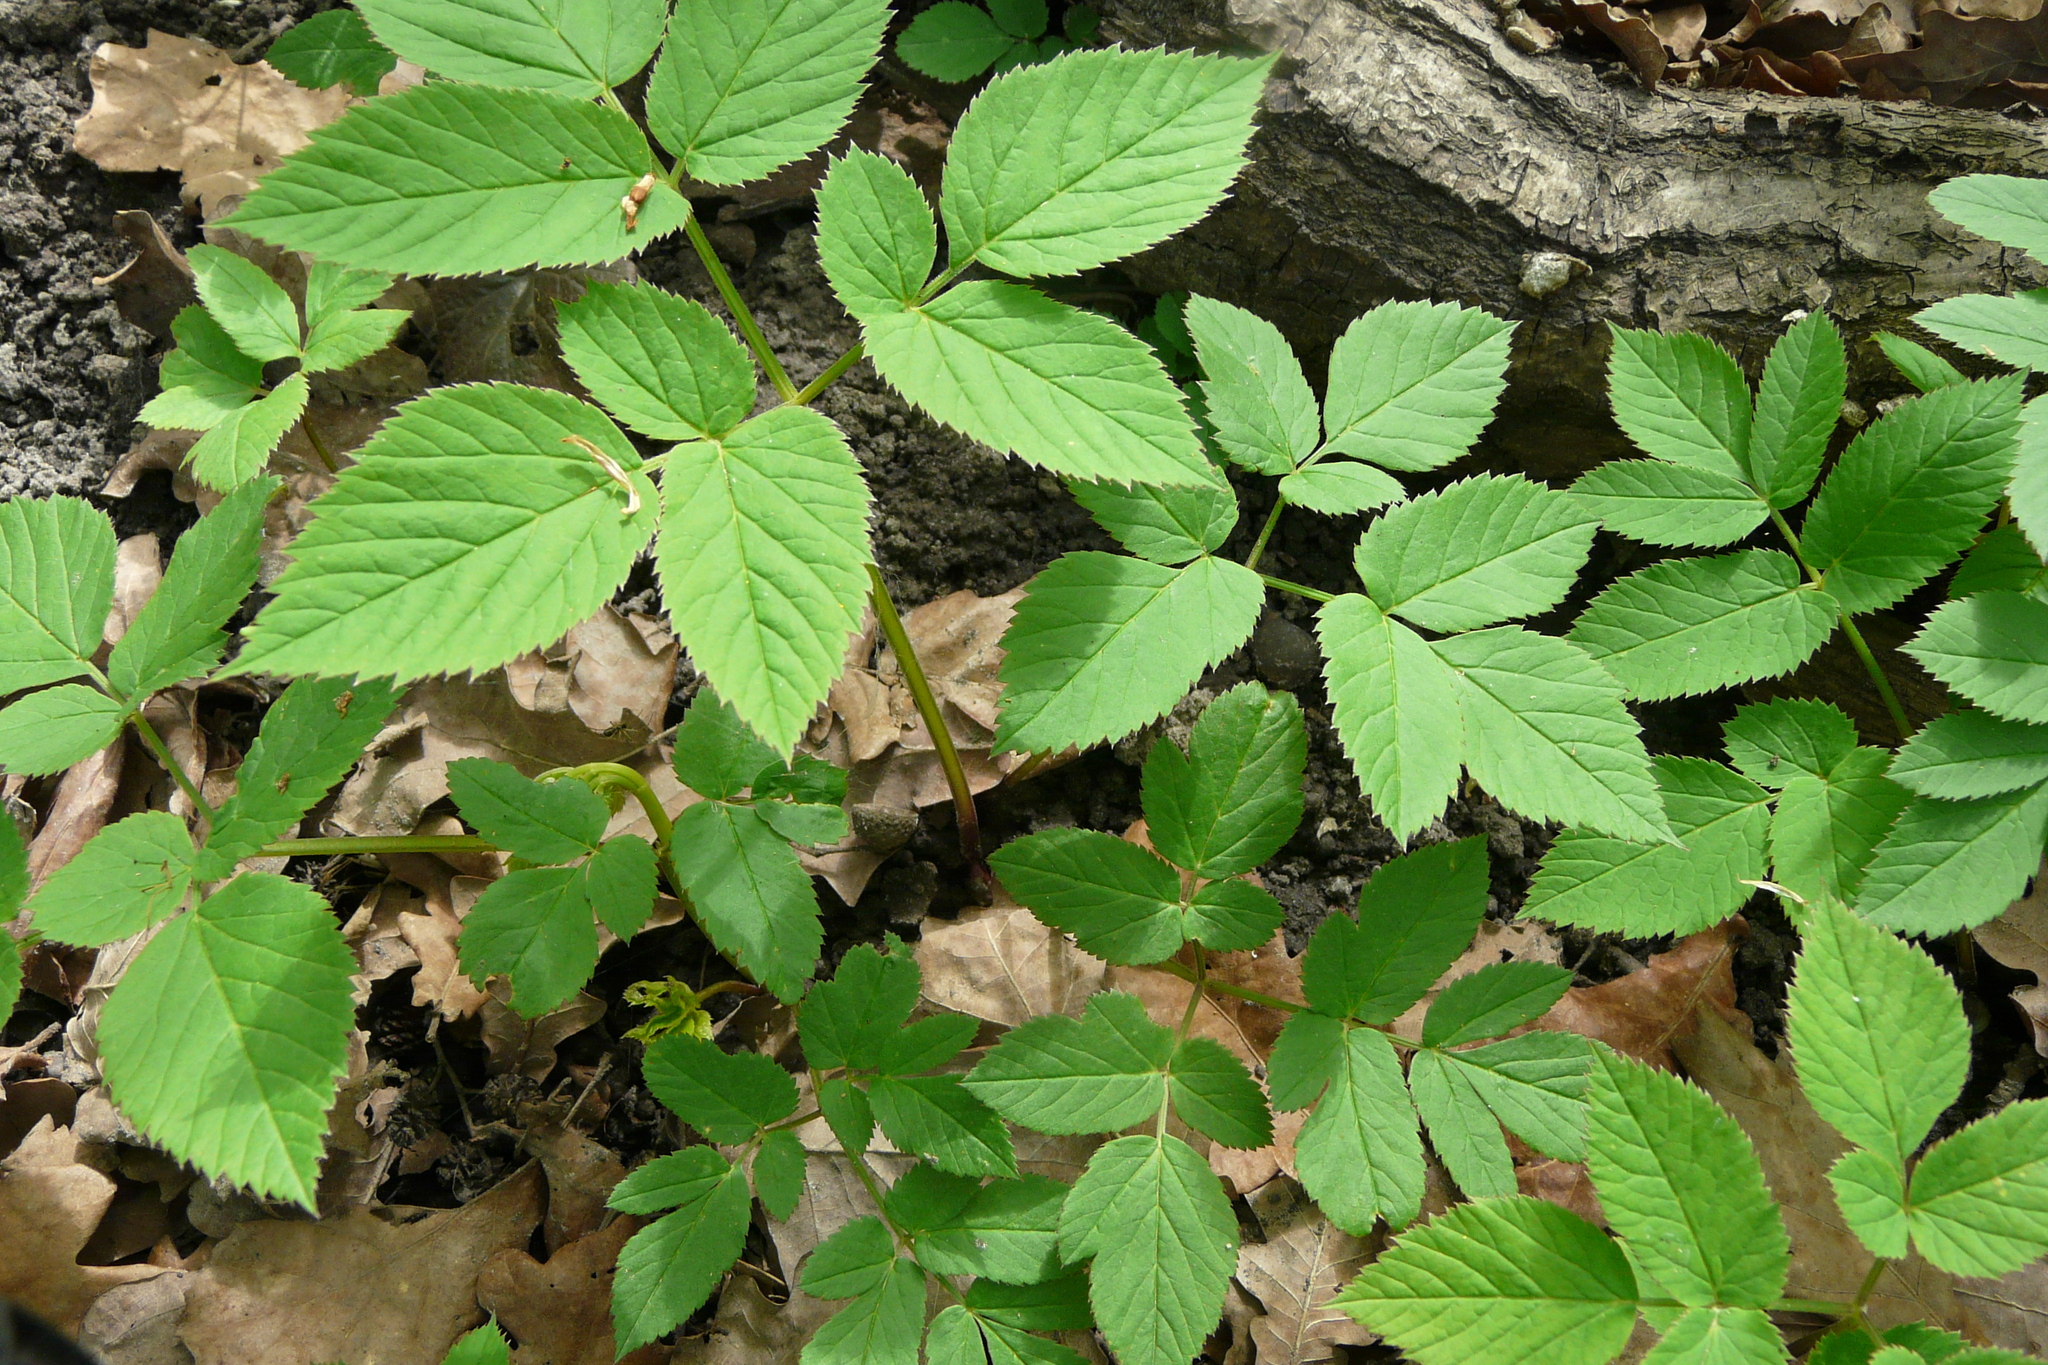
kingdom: Plantae
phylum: Tracheophyta
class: Magnoliopsida
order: Apiales
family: Apiaceae
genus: Aegopodium
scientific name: Aegopodium podagraria
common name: Ground-elder
